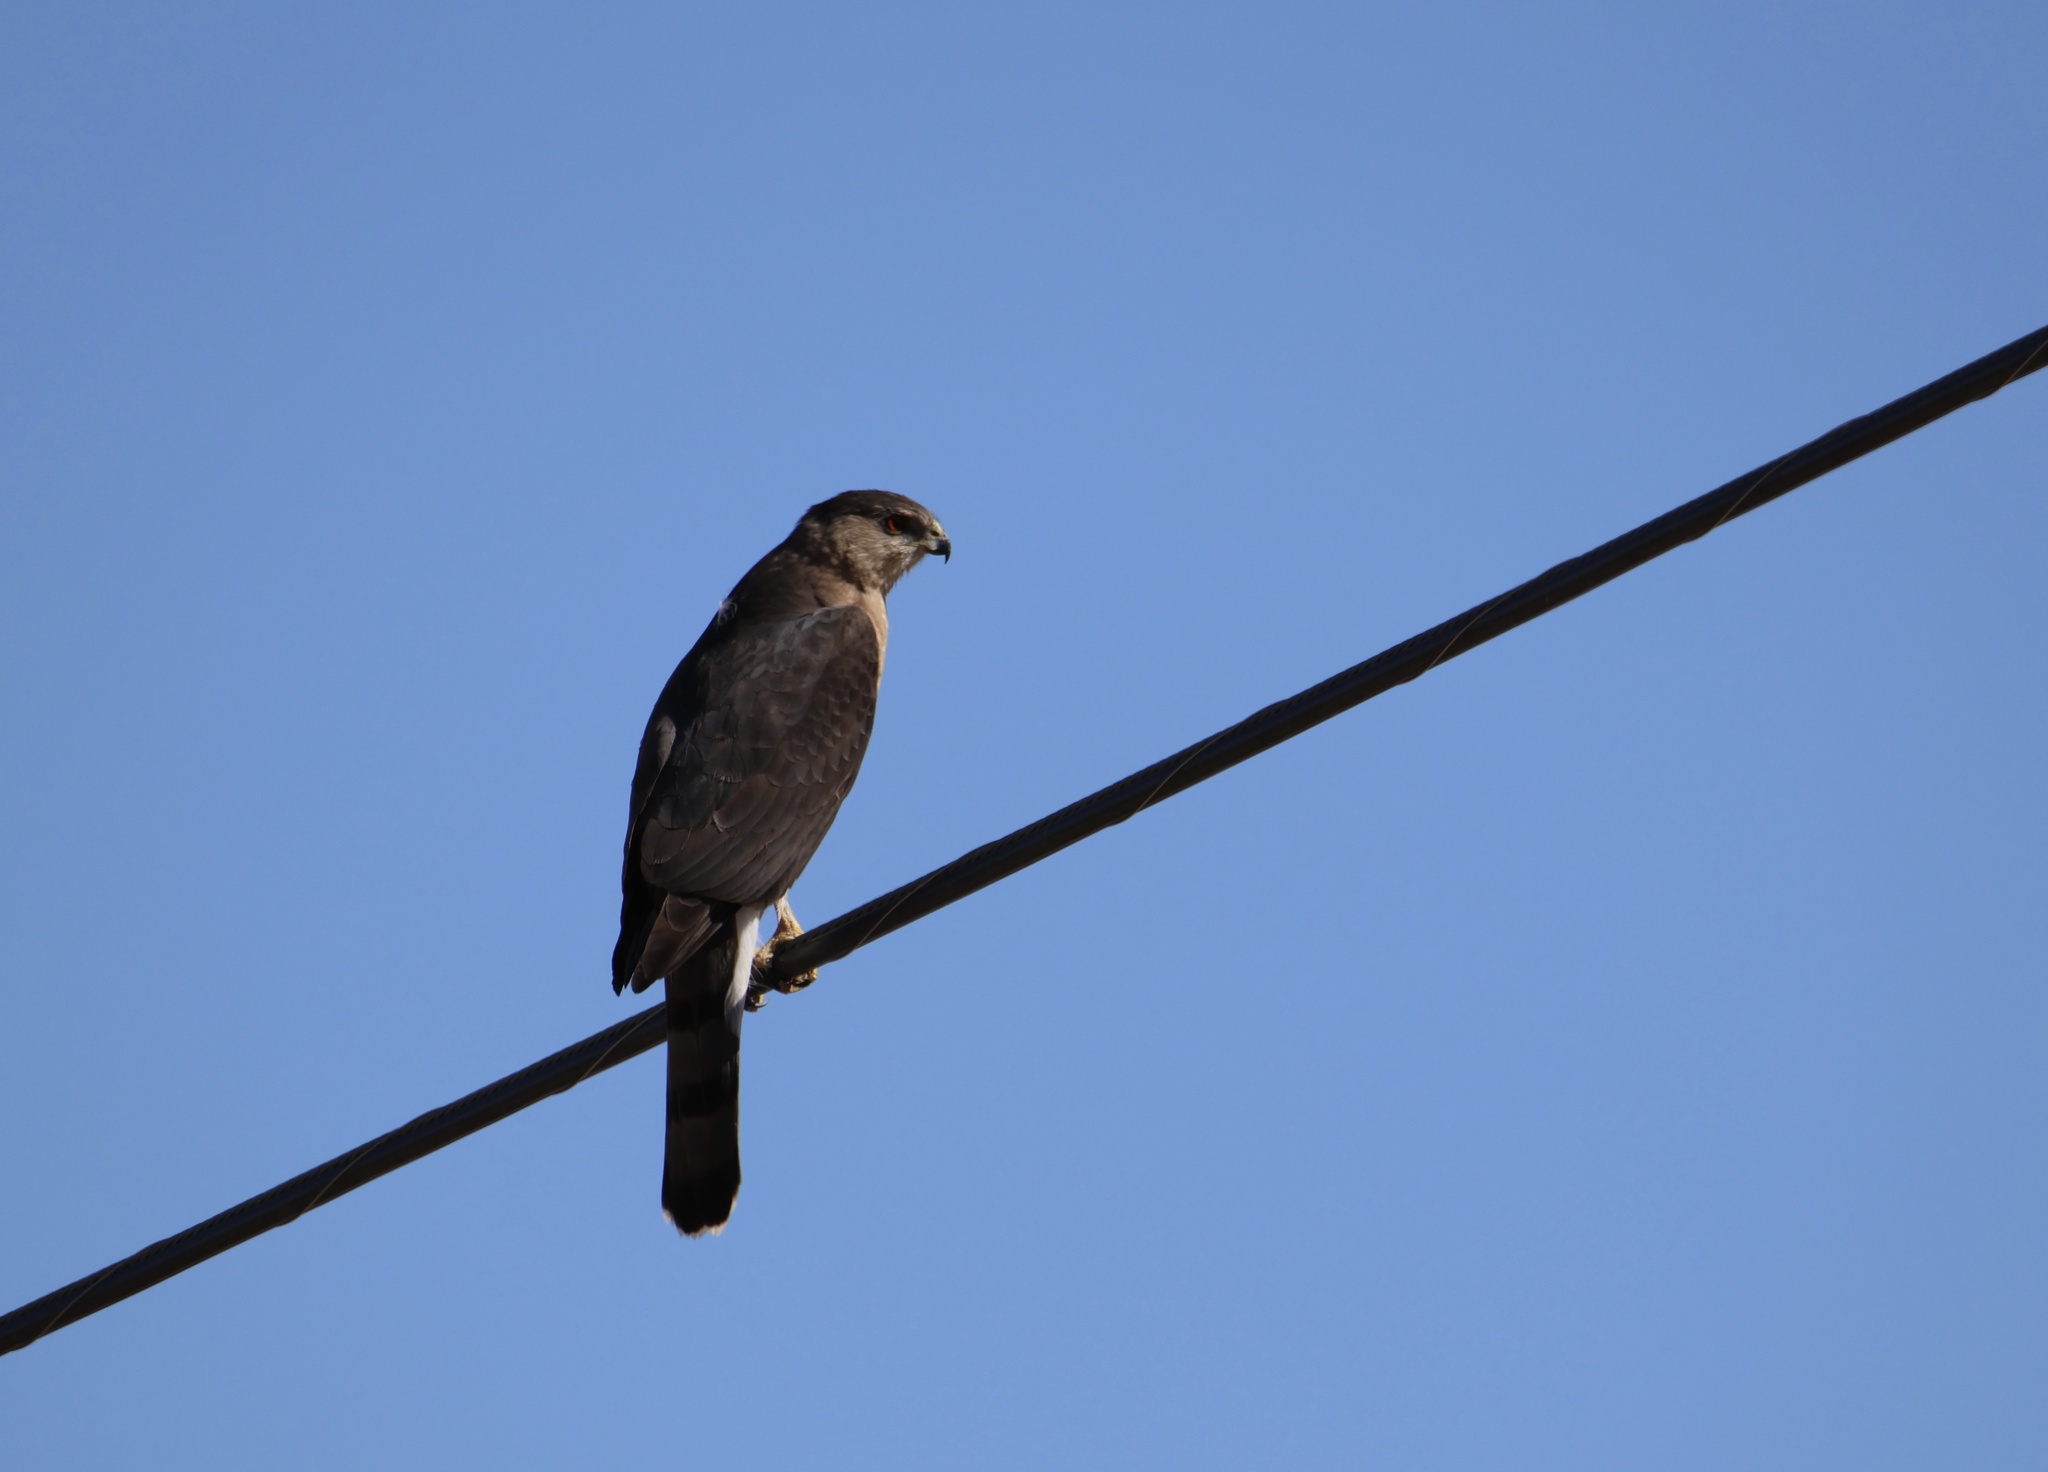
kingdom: Animalia
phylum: Chordata
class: Aves
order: Accipitriformes
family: Accipitridae
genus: Accipiter
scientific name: Accipiter cooperii
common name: Cooper's hawk
